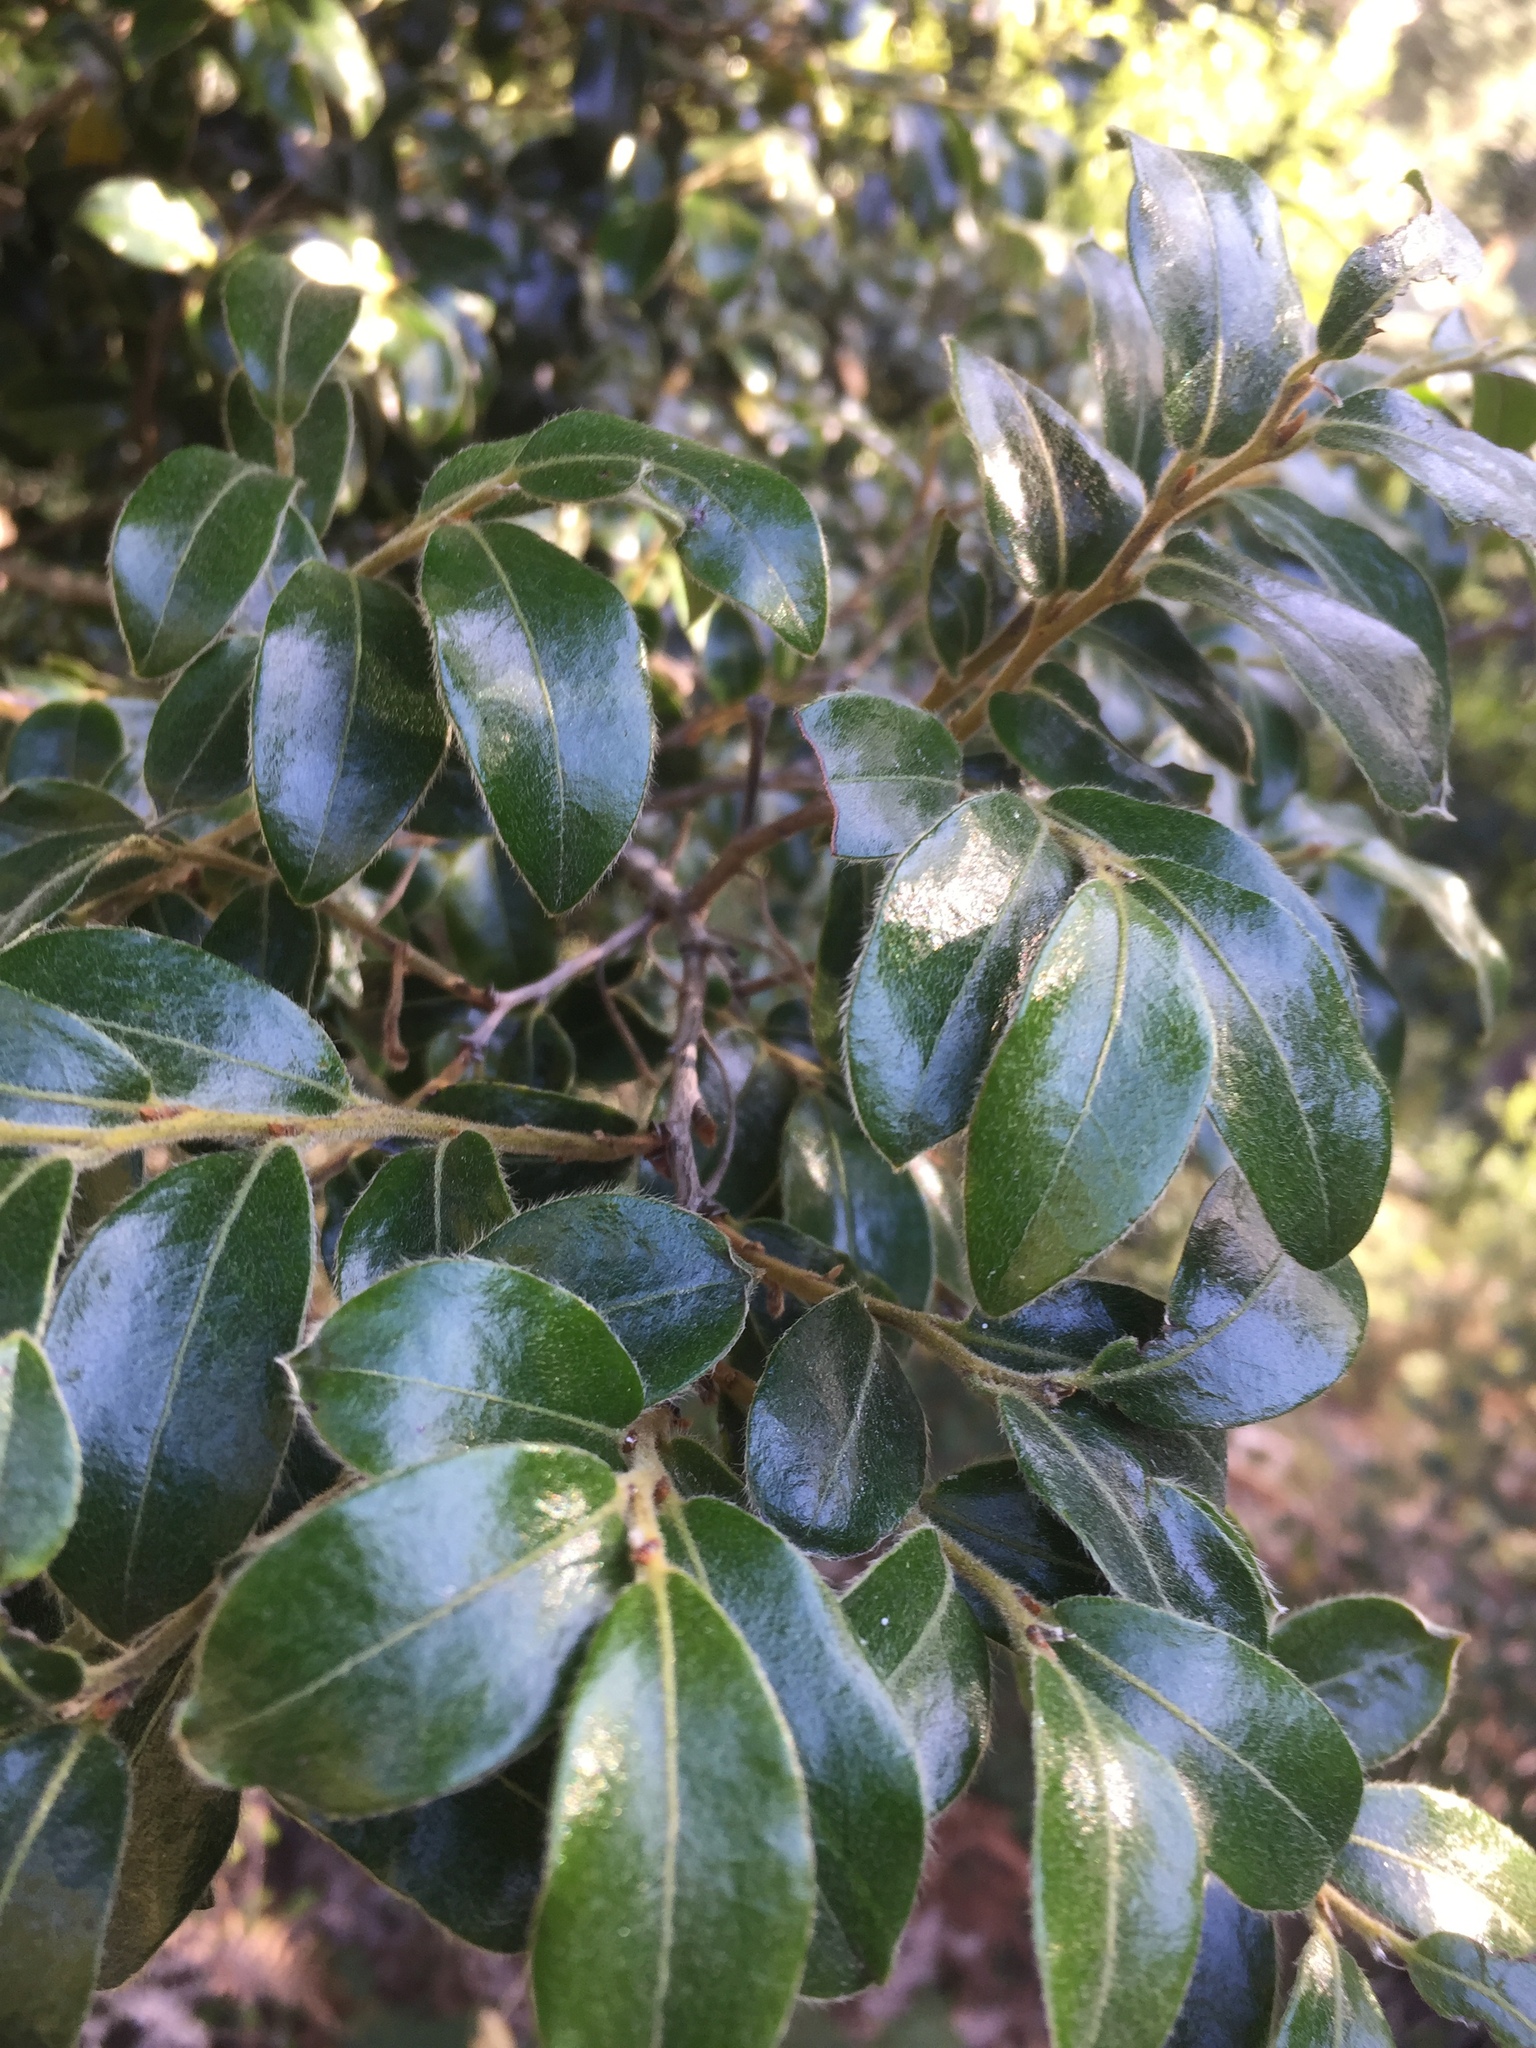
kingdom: Plantae
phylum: Tracheophyta
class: Magnoliopsida
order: Ericales
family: Ebenaceae
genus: Diospyros
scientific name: Diospyros whyteana
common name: Bladder-nut
